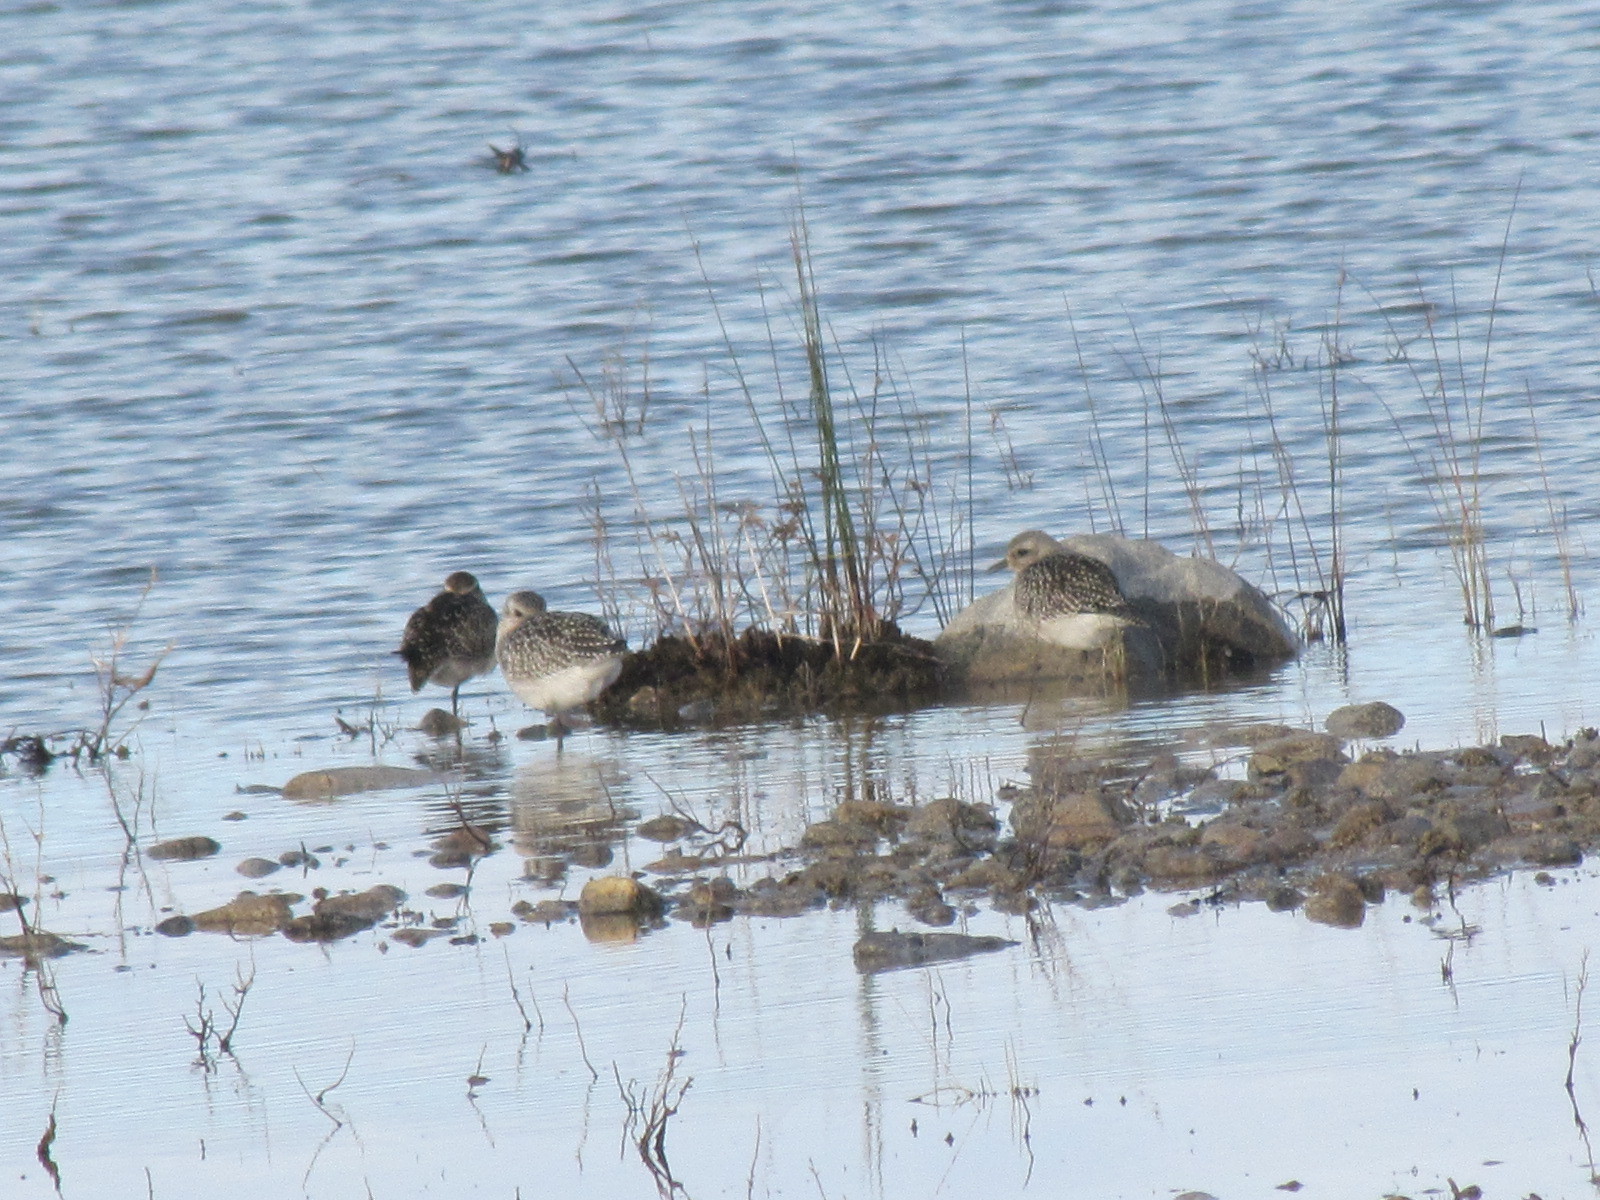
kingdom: Animalia
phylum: Chordata
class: Aves
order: Charadriiformes
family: Charadriidae
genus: Pluvialis
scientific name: Pluvialis squatarola
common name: Grey plover
